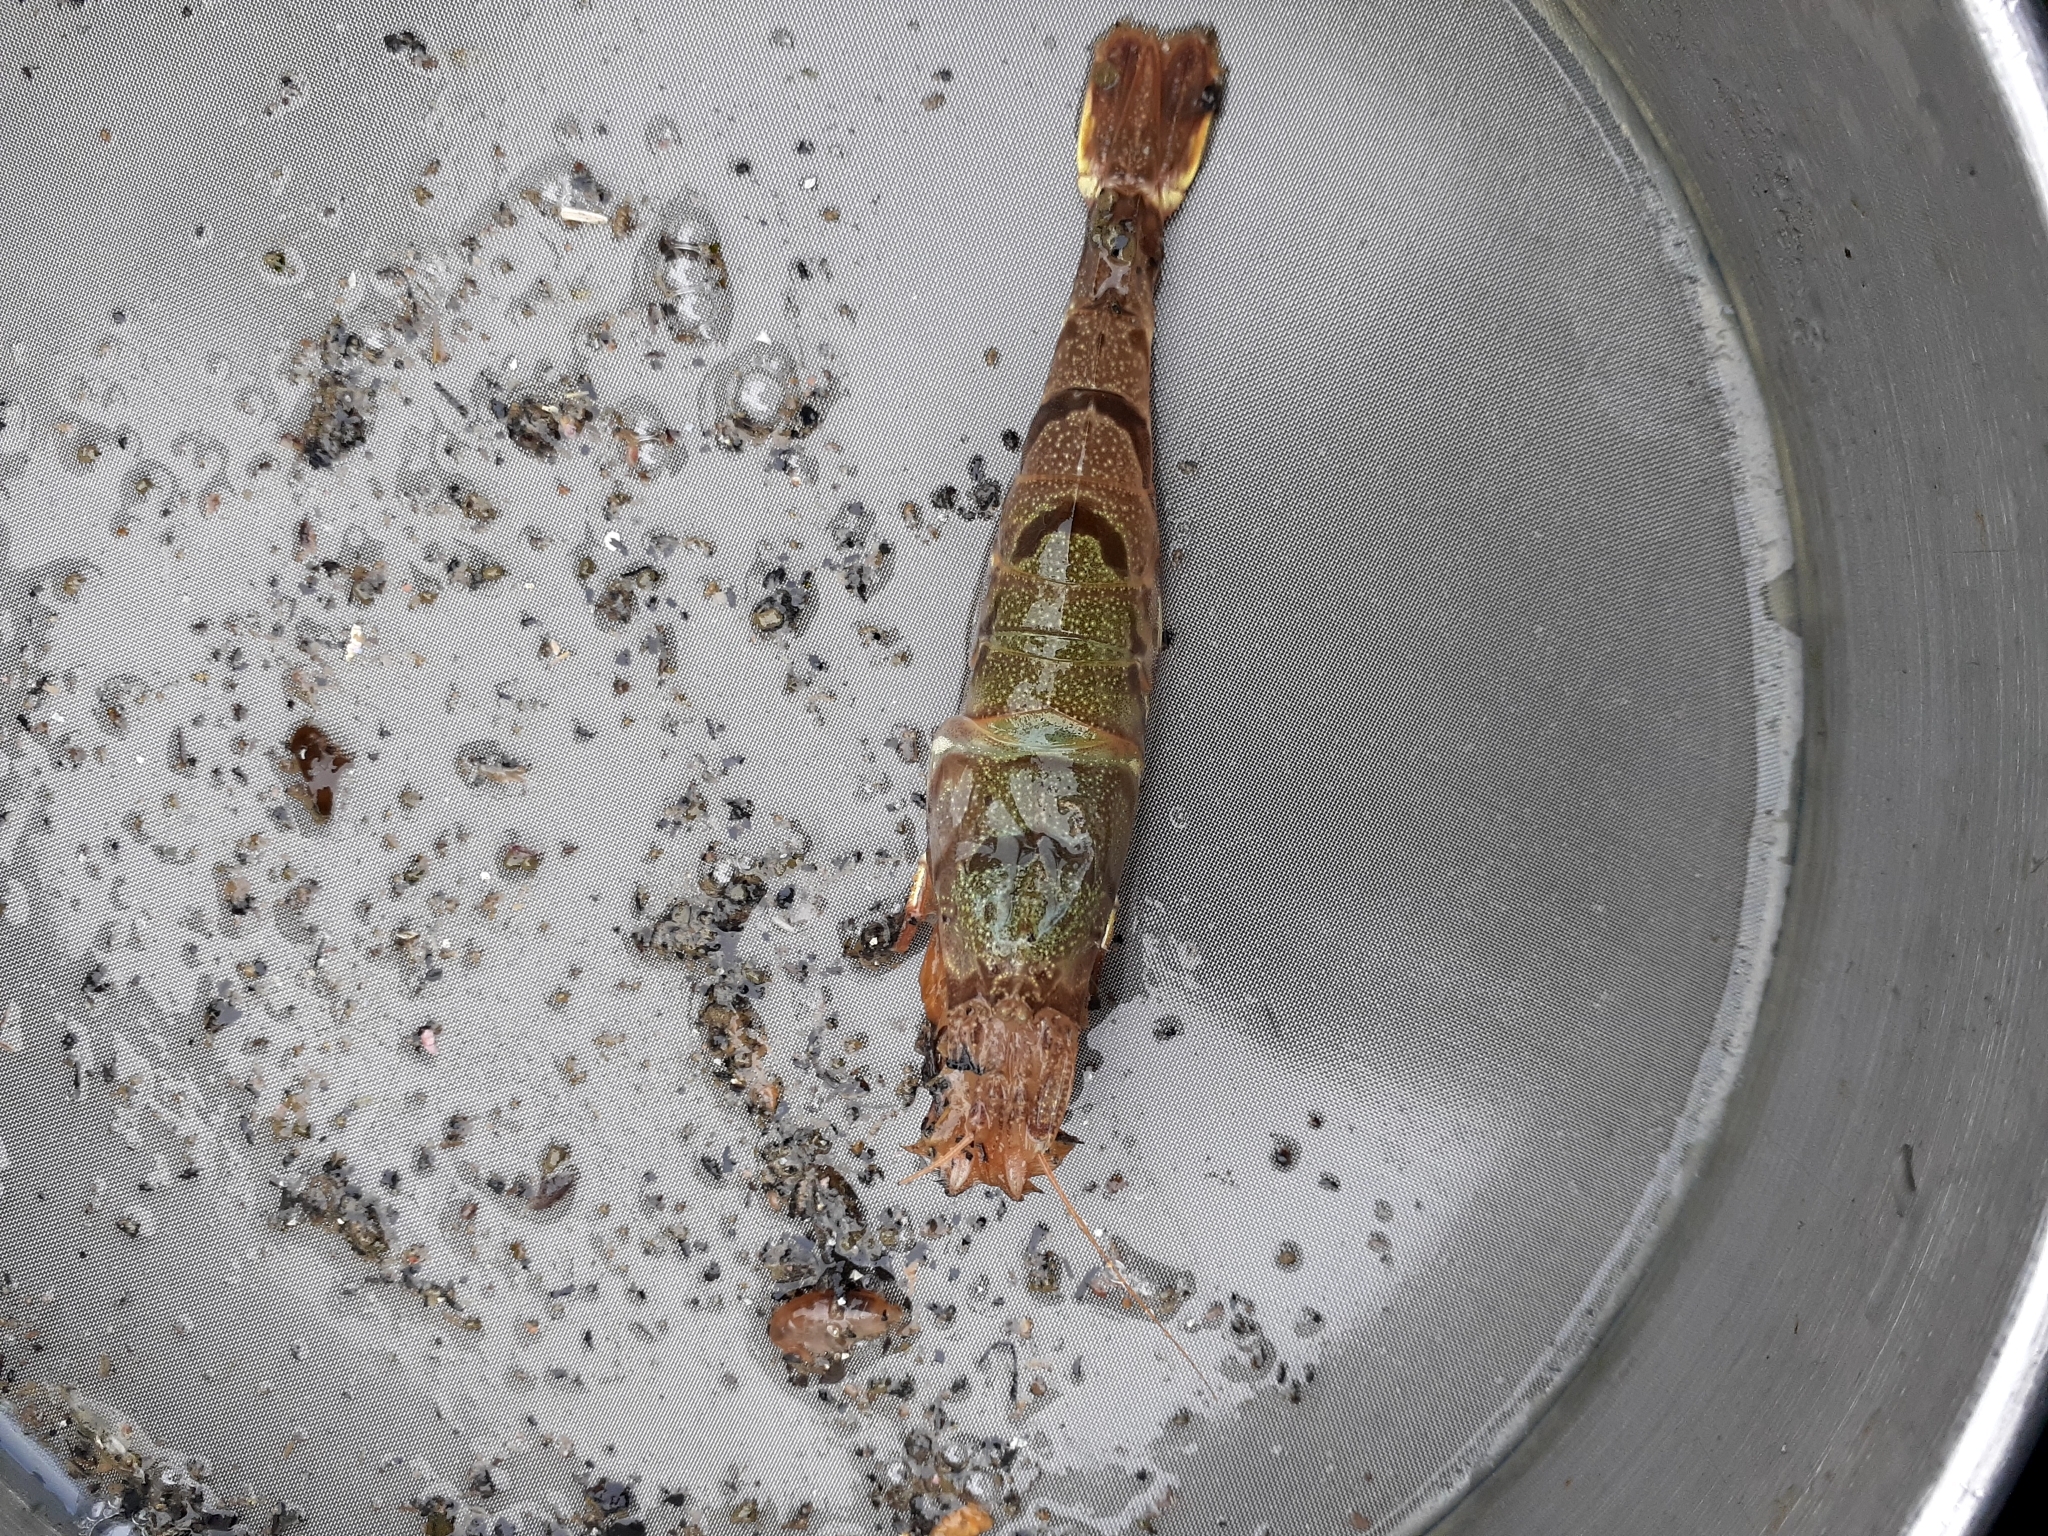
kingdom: Animalia
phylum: Arthropoda
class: Malacostraca
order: Decapoda
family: Crangonidae
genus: Argis
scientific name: Argis dentata
